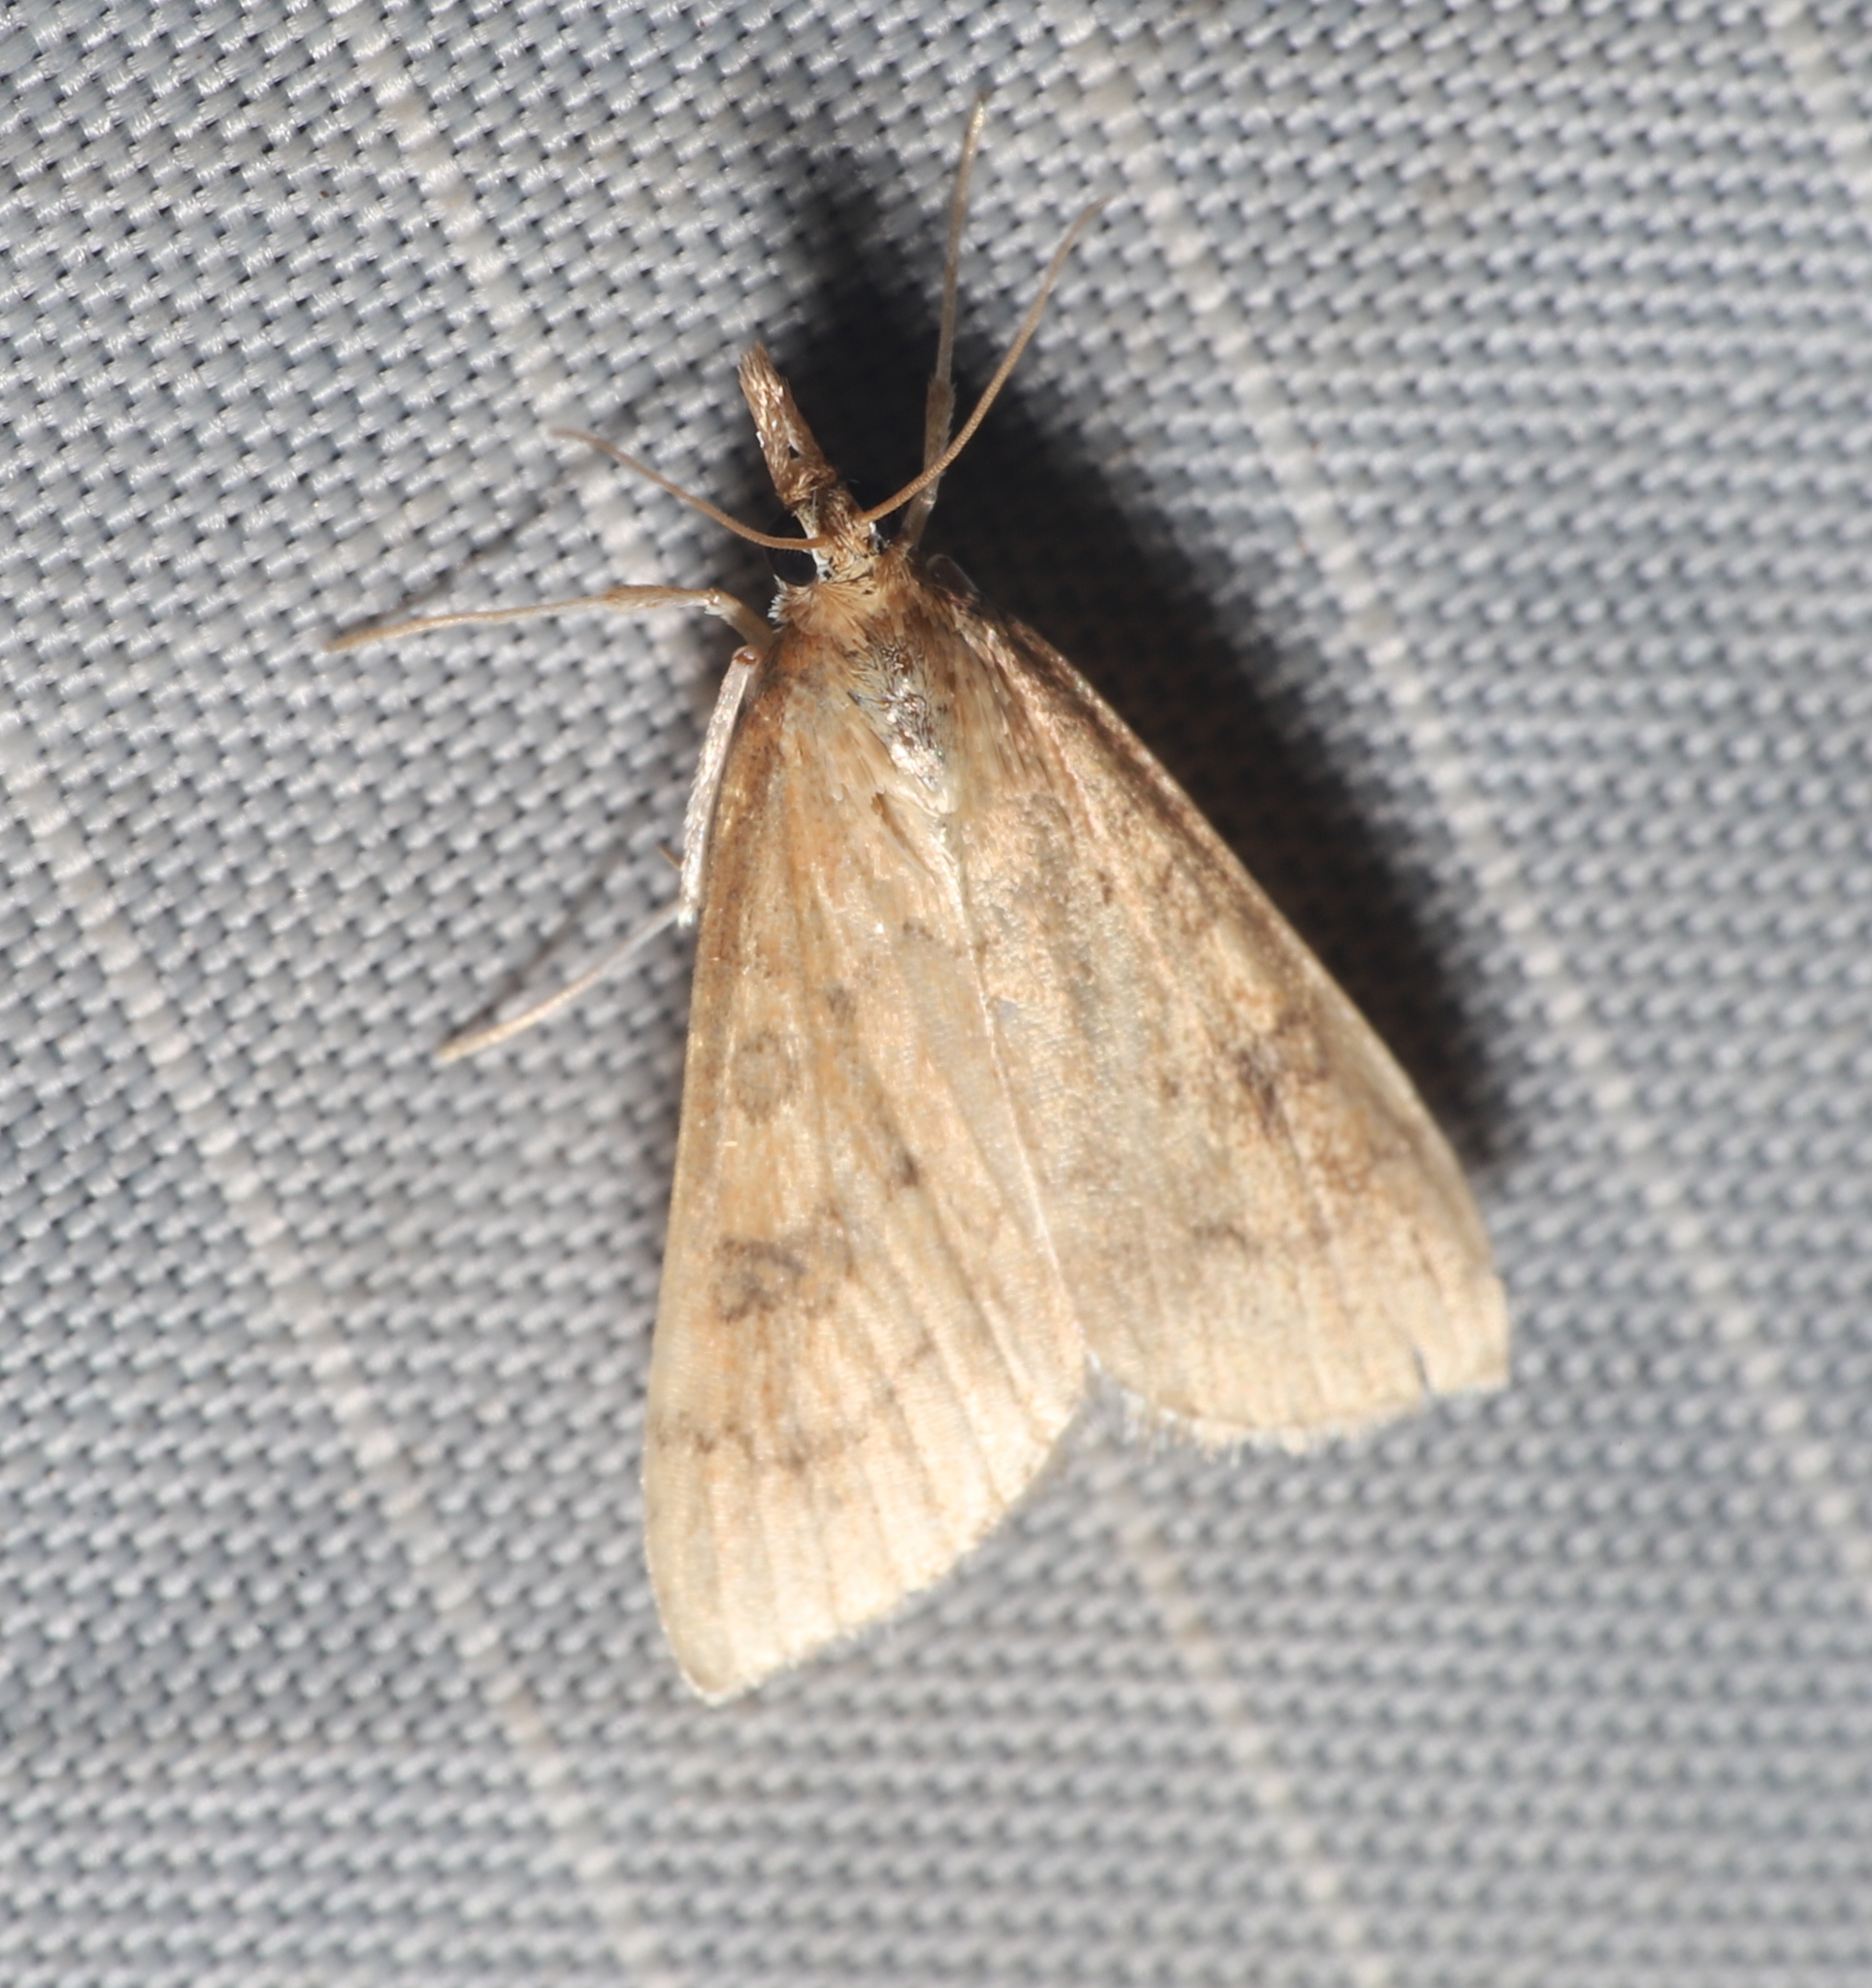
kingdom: Animalia
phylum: Arthropoda
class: Insecta
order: Lepidoptera
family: Crambidae
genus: Udea
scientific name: Udea rubigalis
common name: Celery leaftier moth
